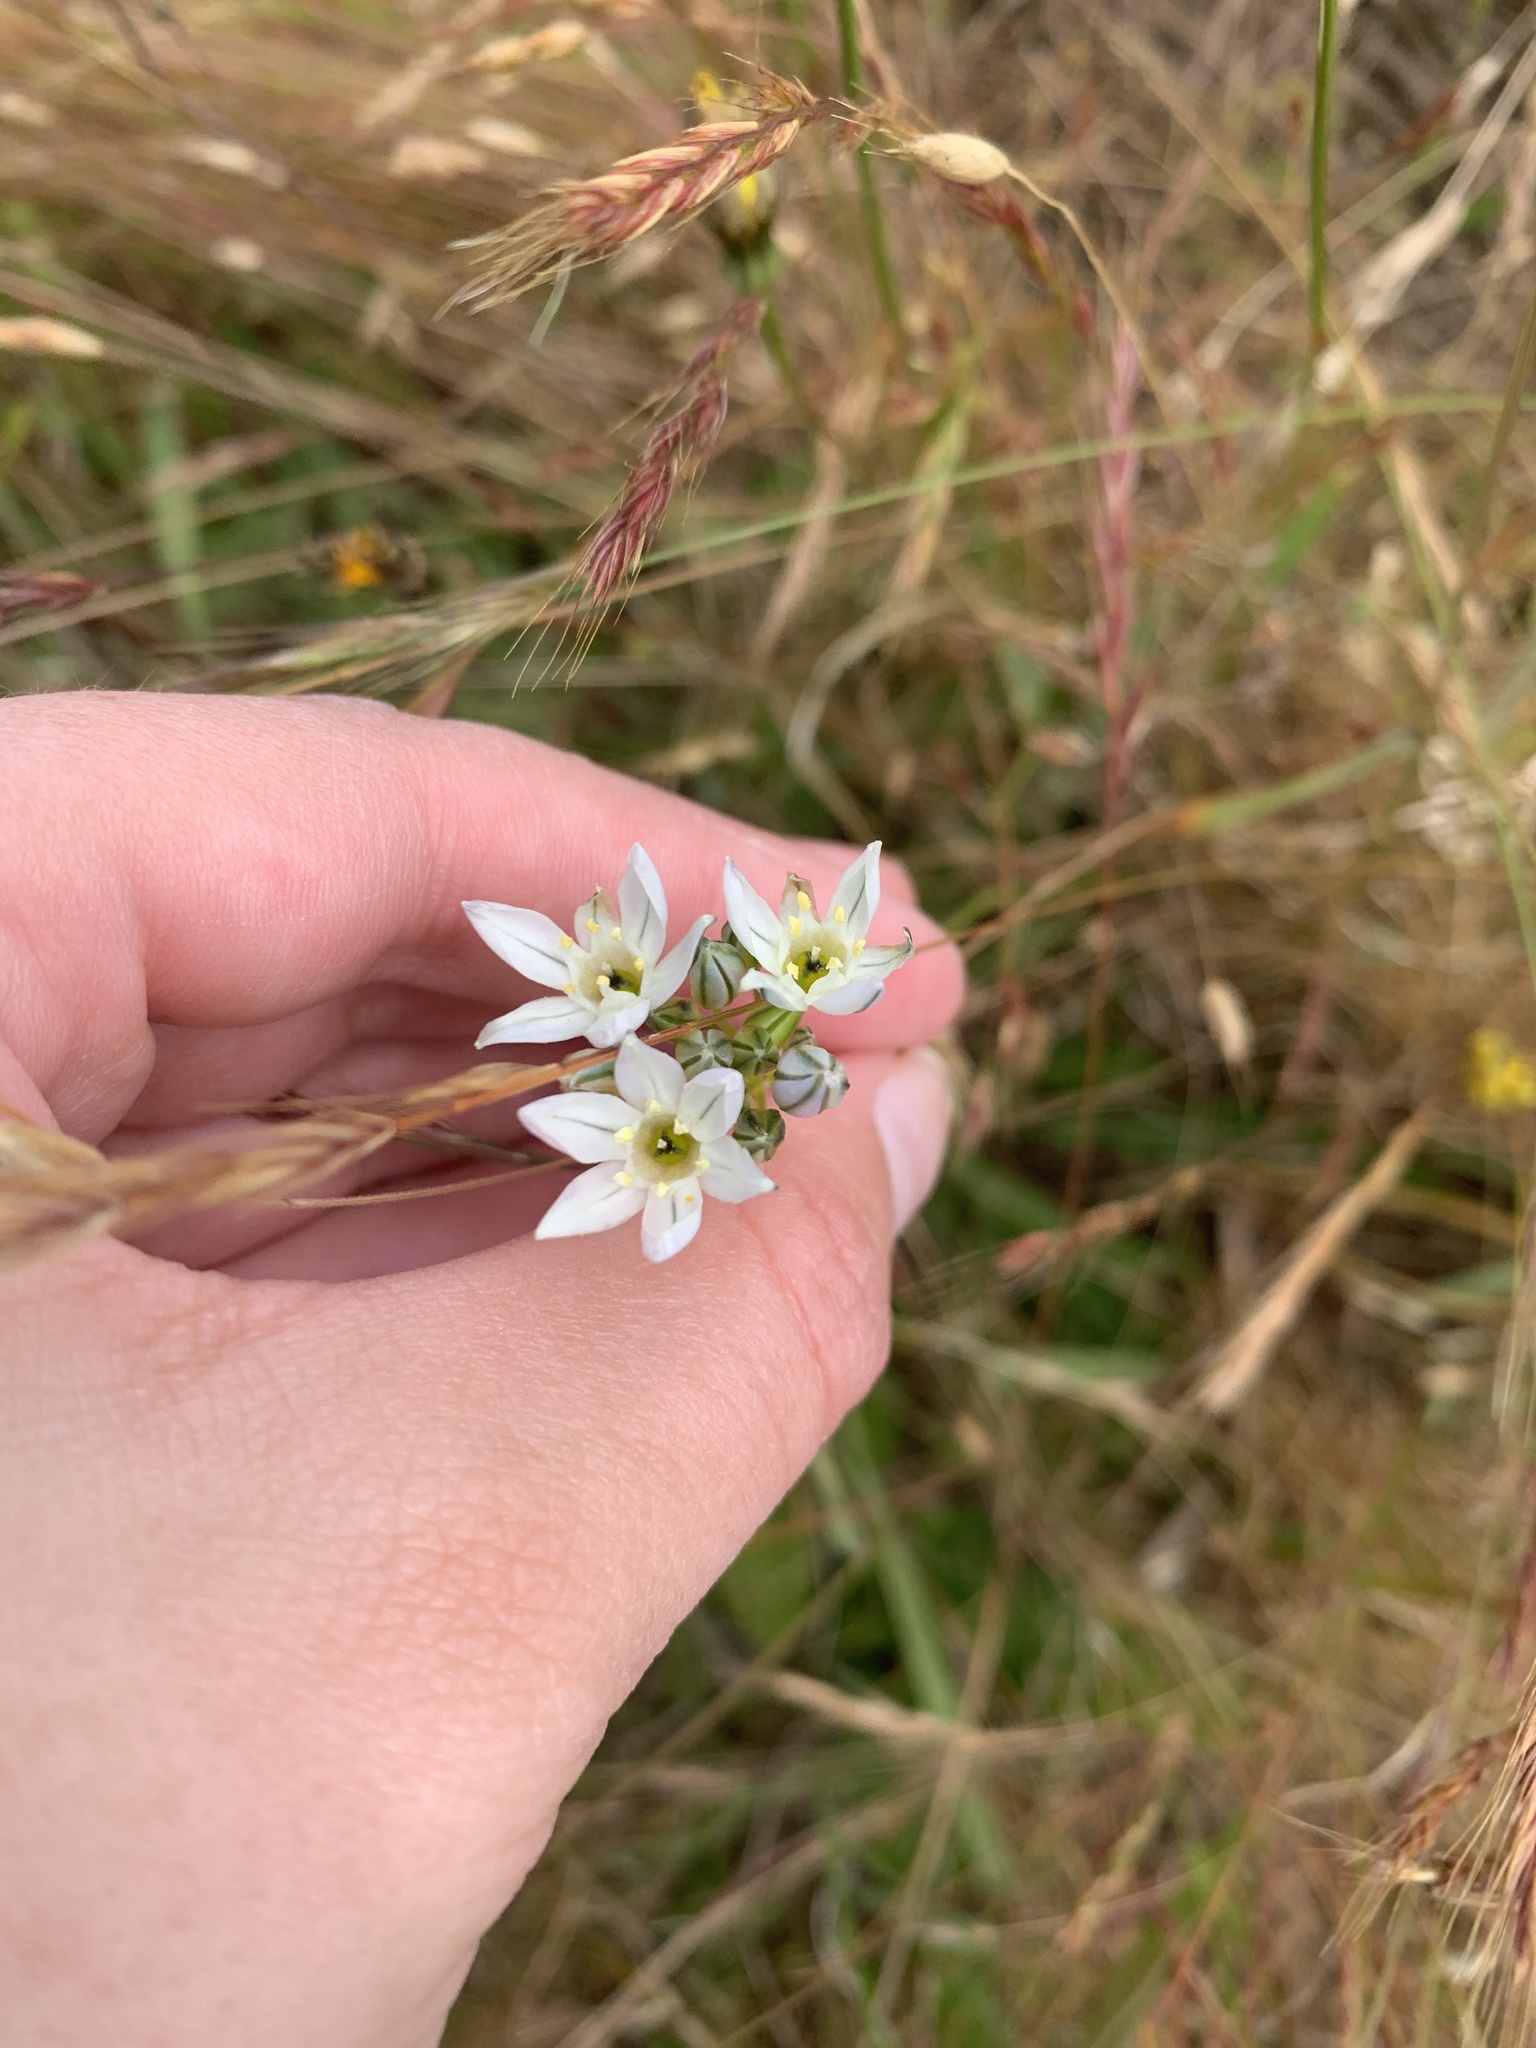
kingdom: Plantae
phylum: Tracheophyta
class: Liliopsida
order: Asparagales
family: Asparagaceae
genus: Triteleia
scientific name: Triteleia hyacinthina
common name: White brodiaea
